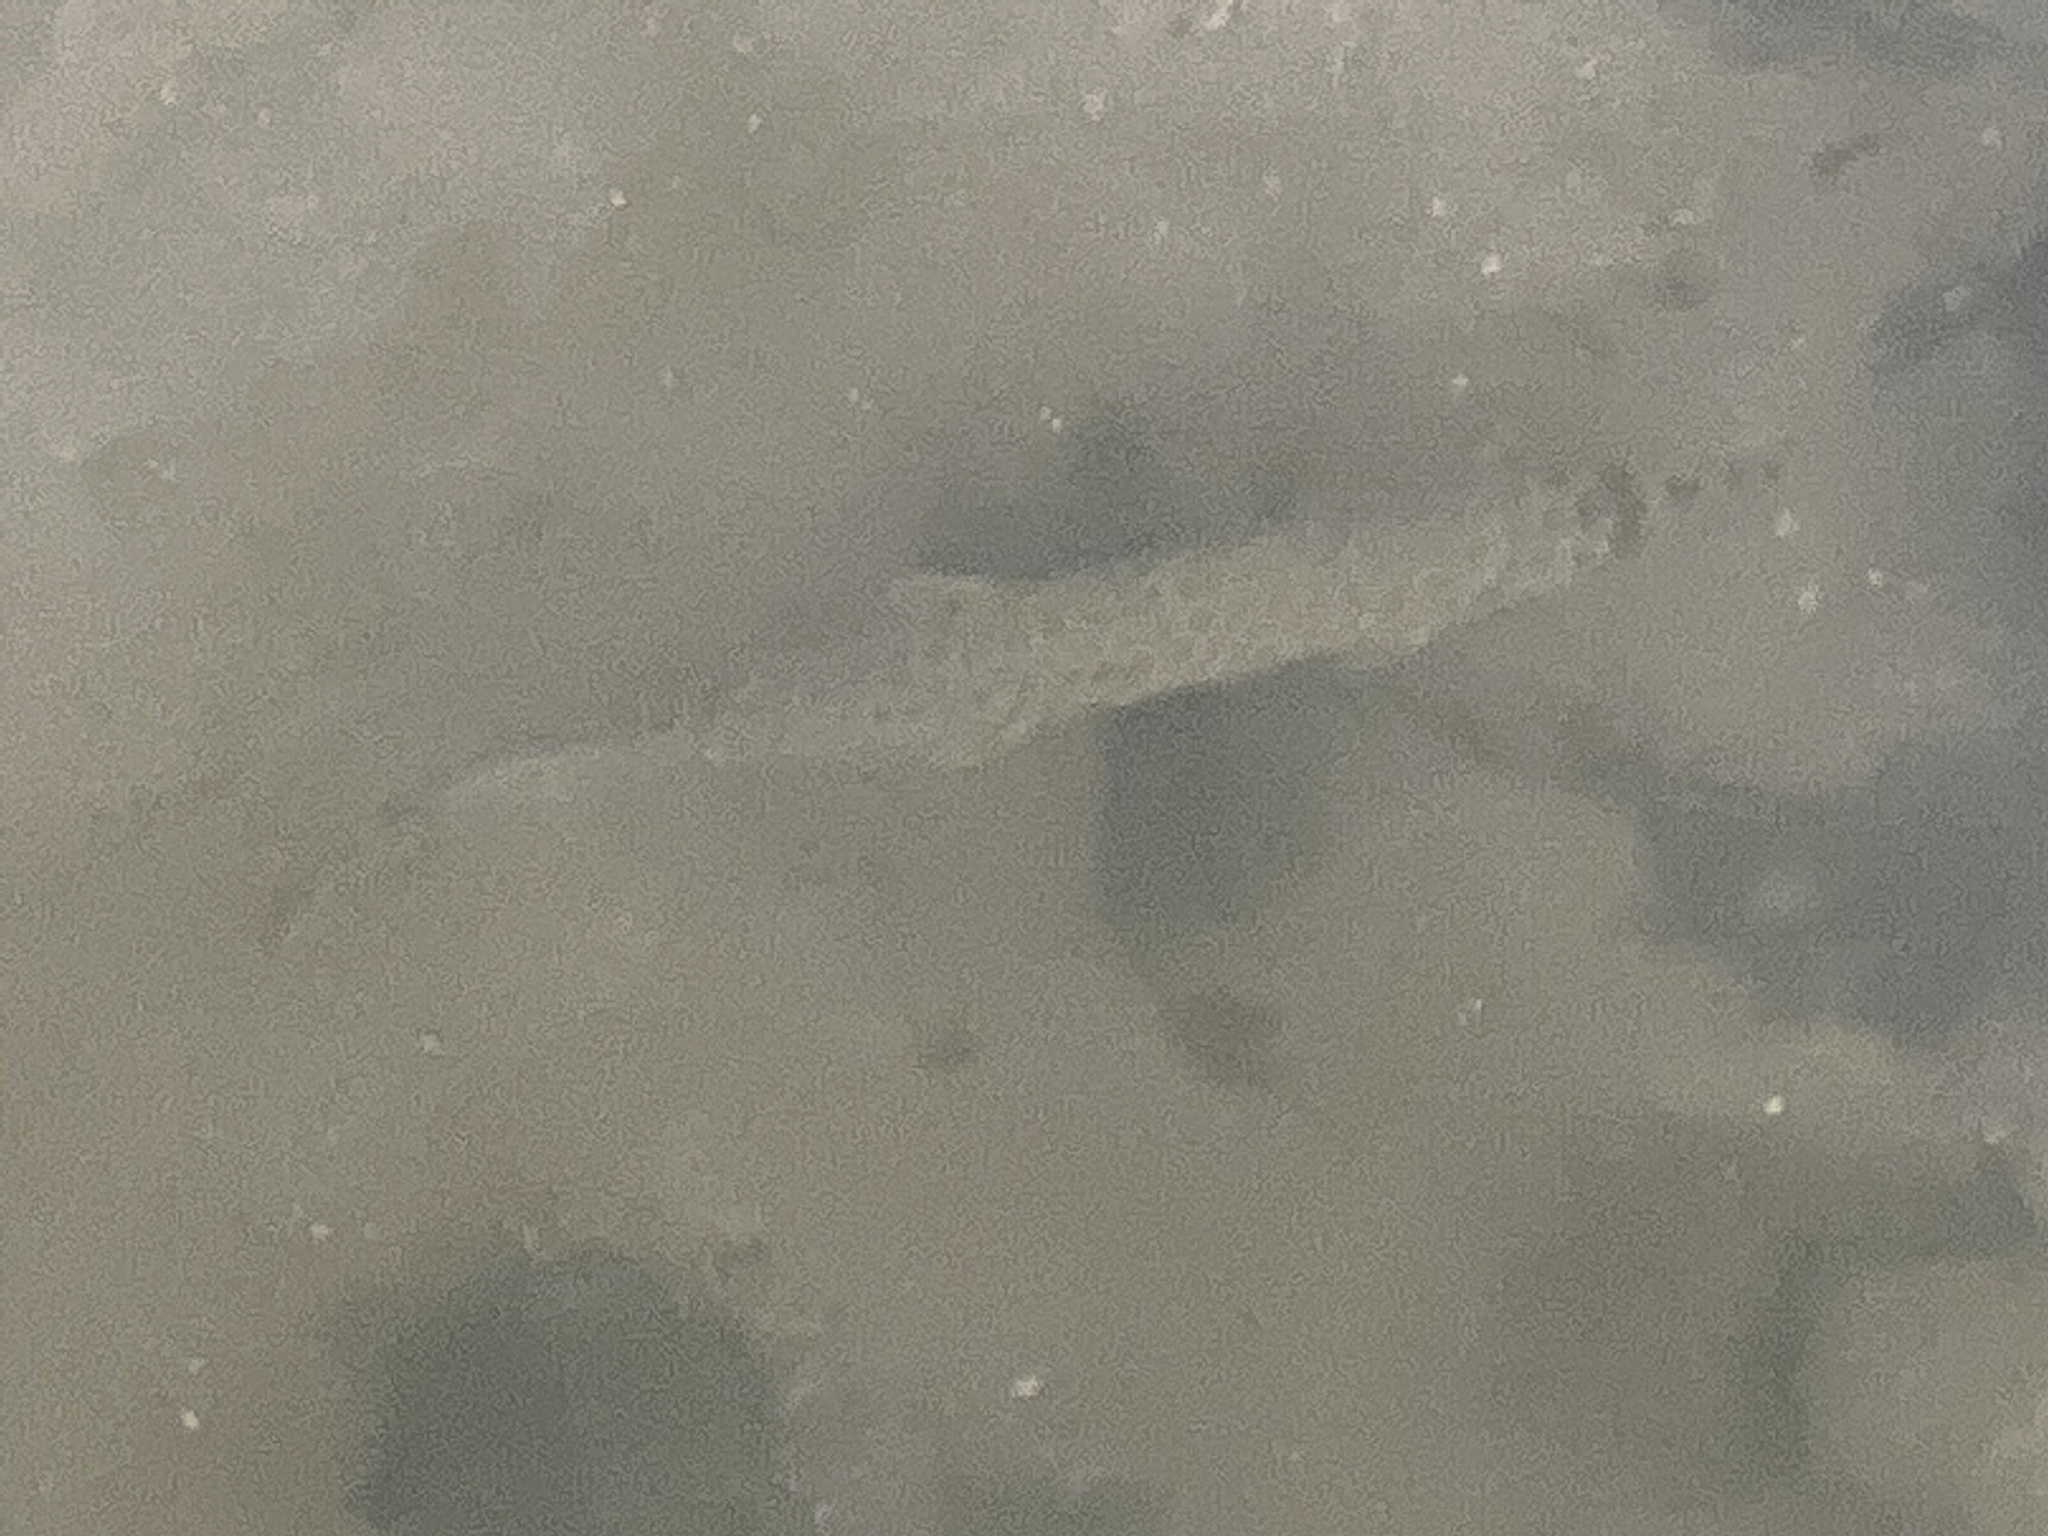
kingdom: Animalia
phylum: Chordata
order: Lepisosteiformes
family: Lepisosteidae
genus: Lepisosteus
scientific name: Lepisosteus platyrhincus
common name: Florida gar
